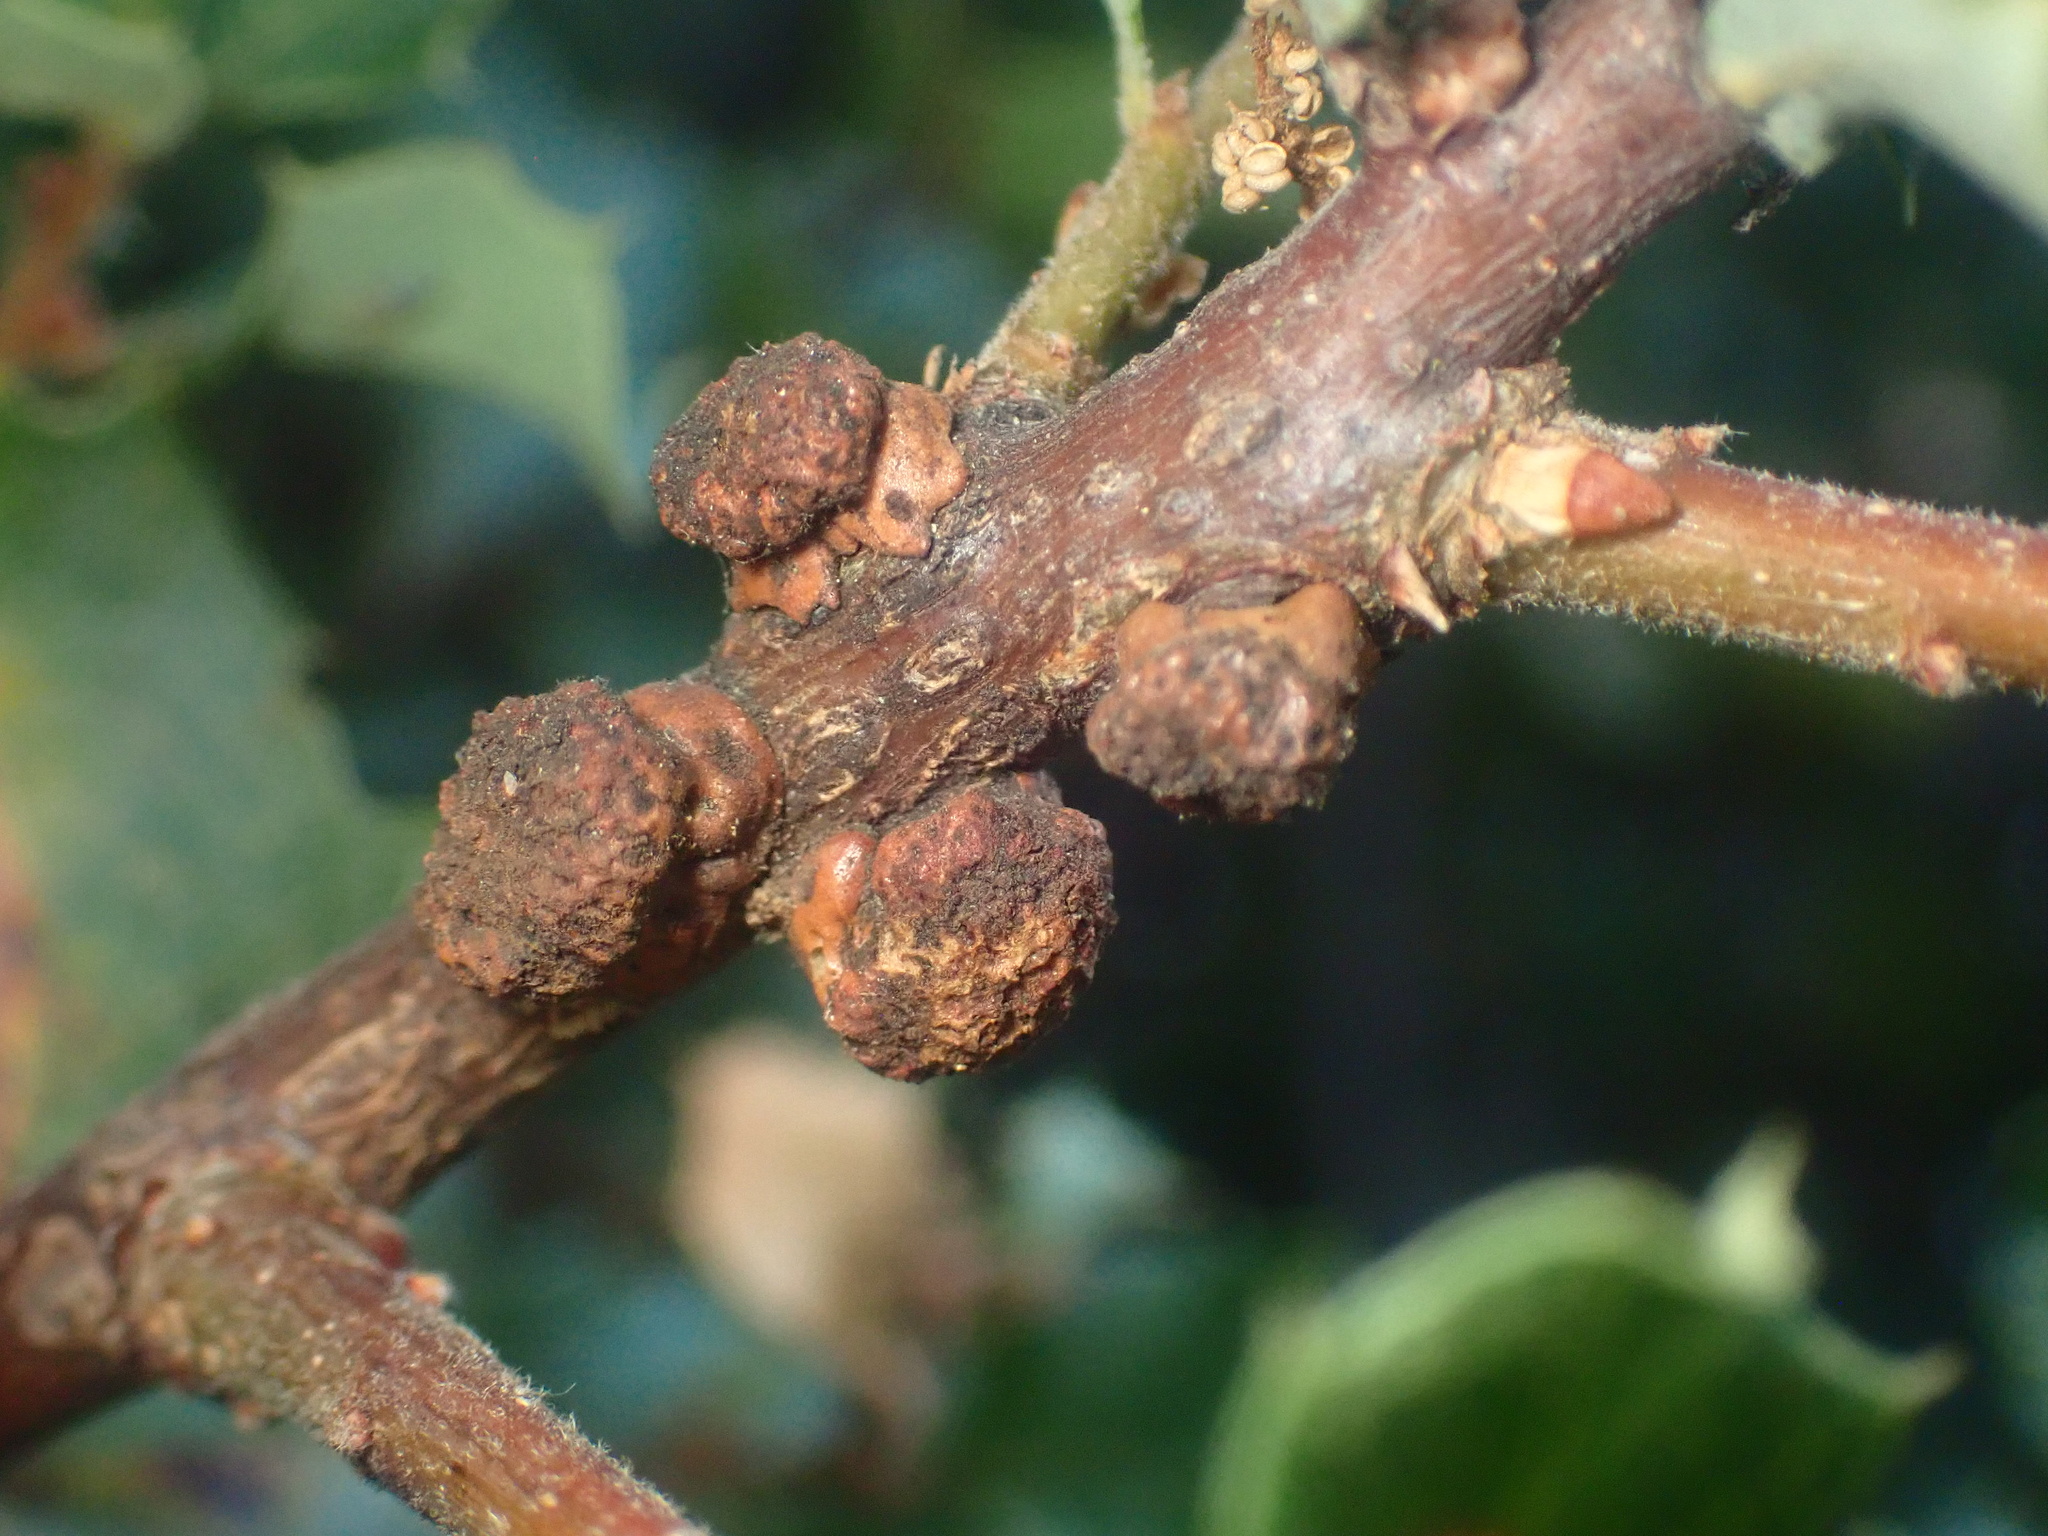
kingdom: Animalia
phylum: Arthropoda
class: Insecta
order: Hymenoptera
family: Cynipidae
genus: Disholcaspis
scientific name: Disholcaspis prehensa
